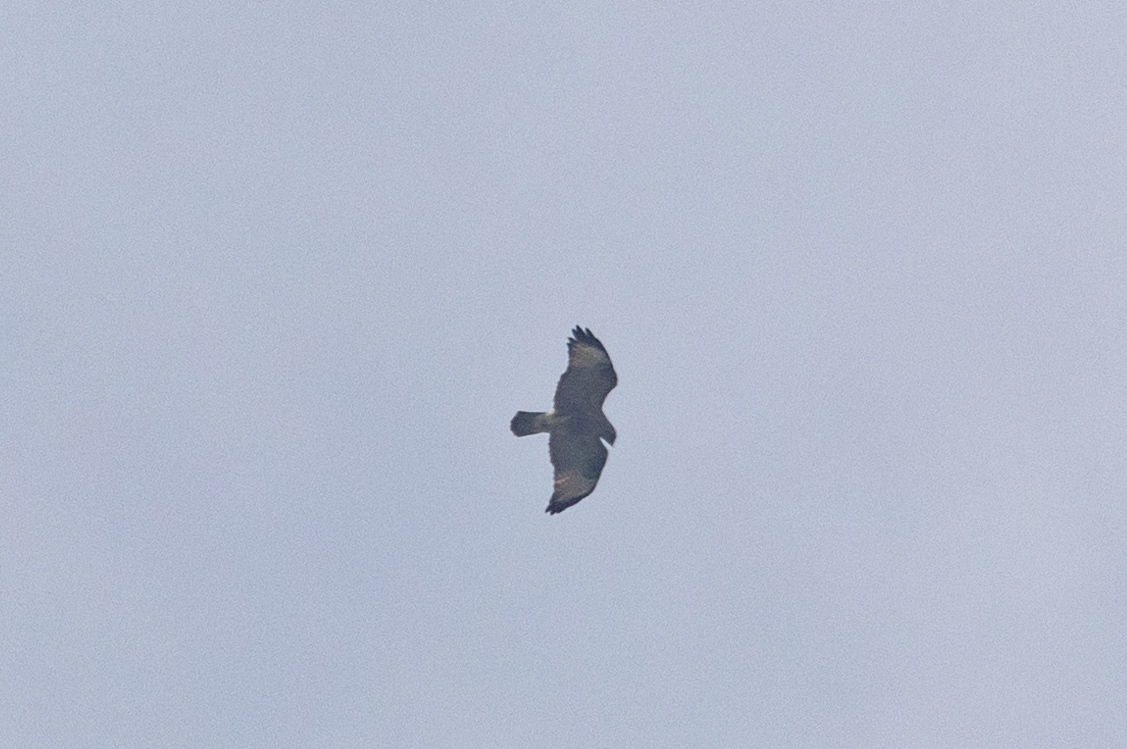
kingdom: Animalia
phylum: Chordata
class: Aves
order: Accipitriformes
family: Accipitridae
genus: Buteo
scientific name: Buteo japonicus
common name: Eastern buzzard
